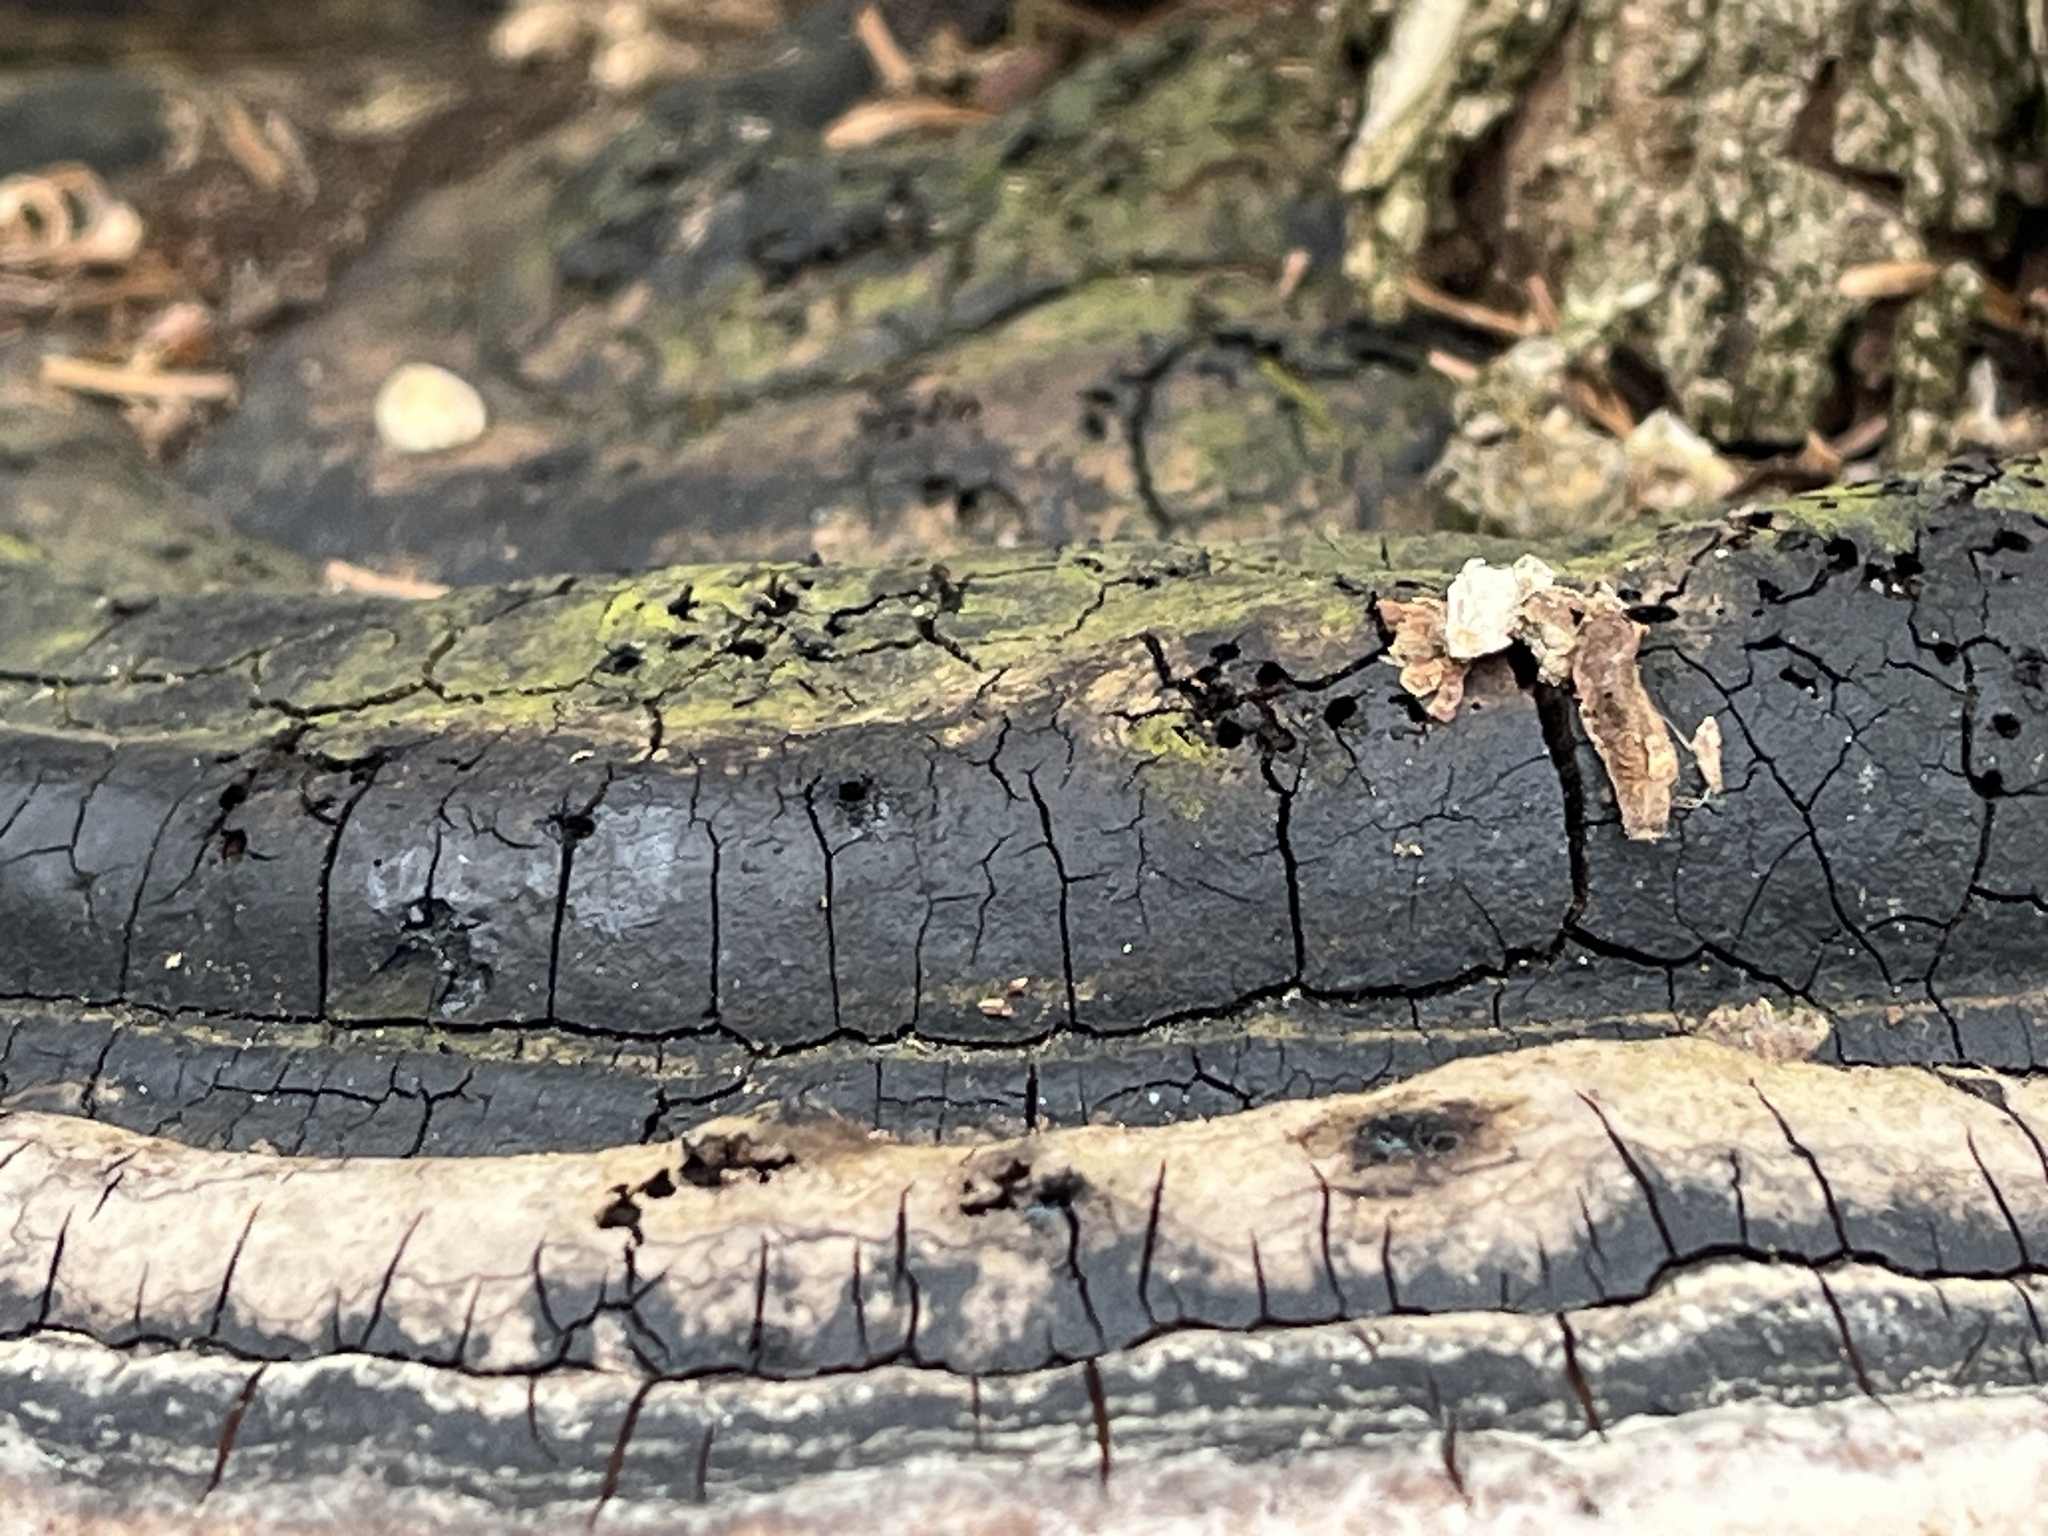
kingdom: Fungi
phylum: Basidiomycota
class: Agaricomycetes
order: Hymenochaetales
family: Hymenochaetaceae
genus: Phellinus
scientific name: Phellinus igniarius
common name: Willow bracket
